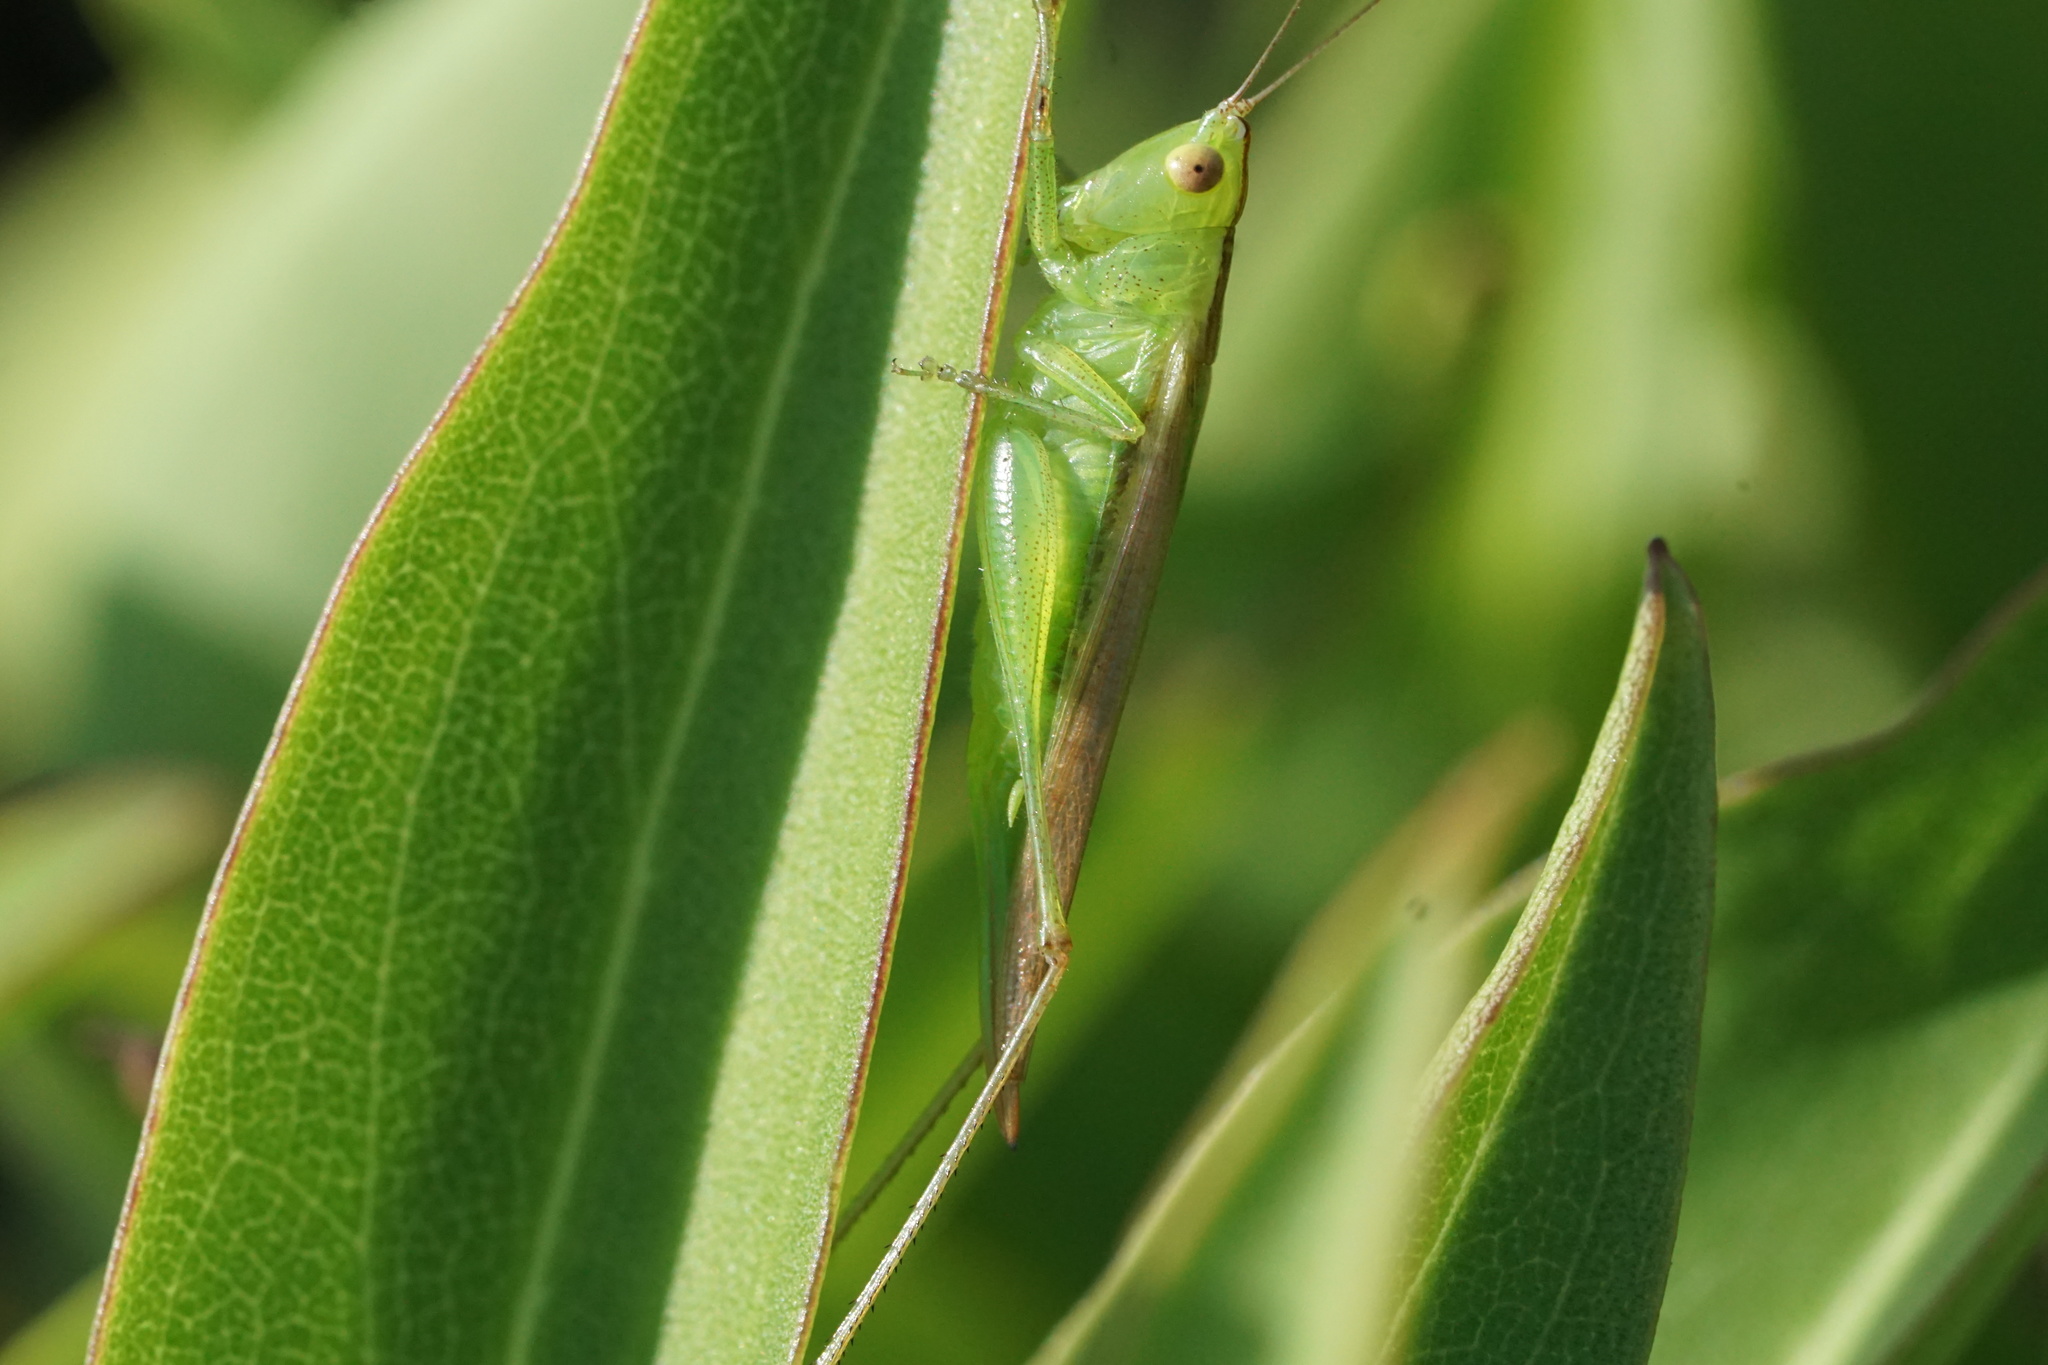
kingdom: Animalia
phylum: Arthropoda
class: Insecta
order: Orthoptera
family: Tettigoniidae
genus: Conocephalus
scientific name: Conocephalus fasciatus
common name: Slender meadow katydid
